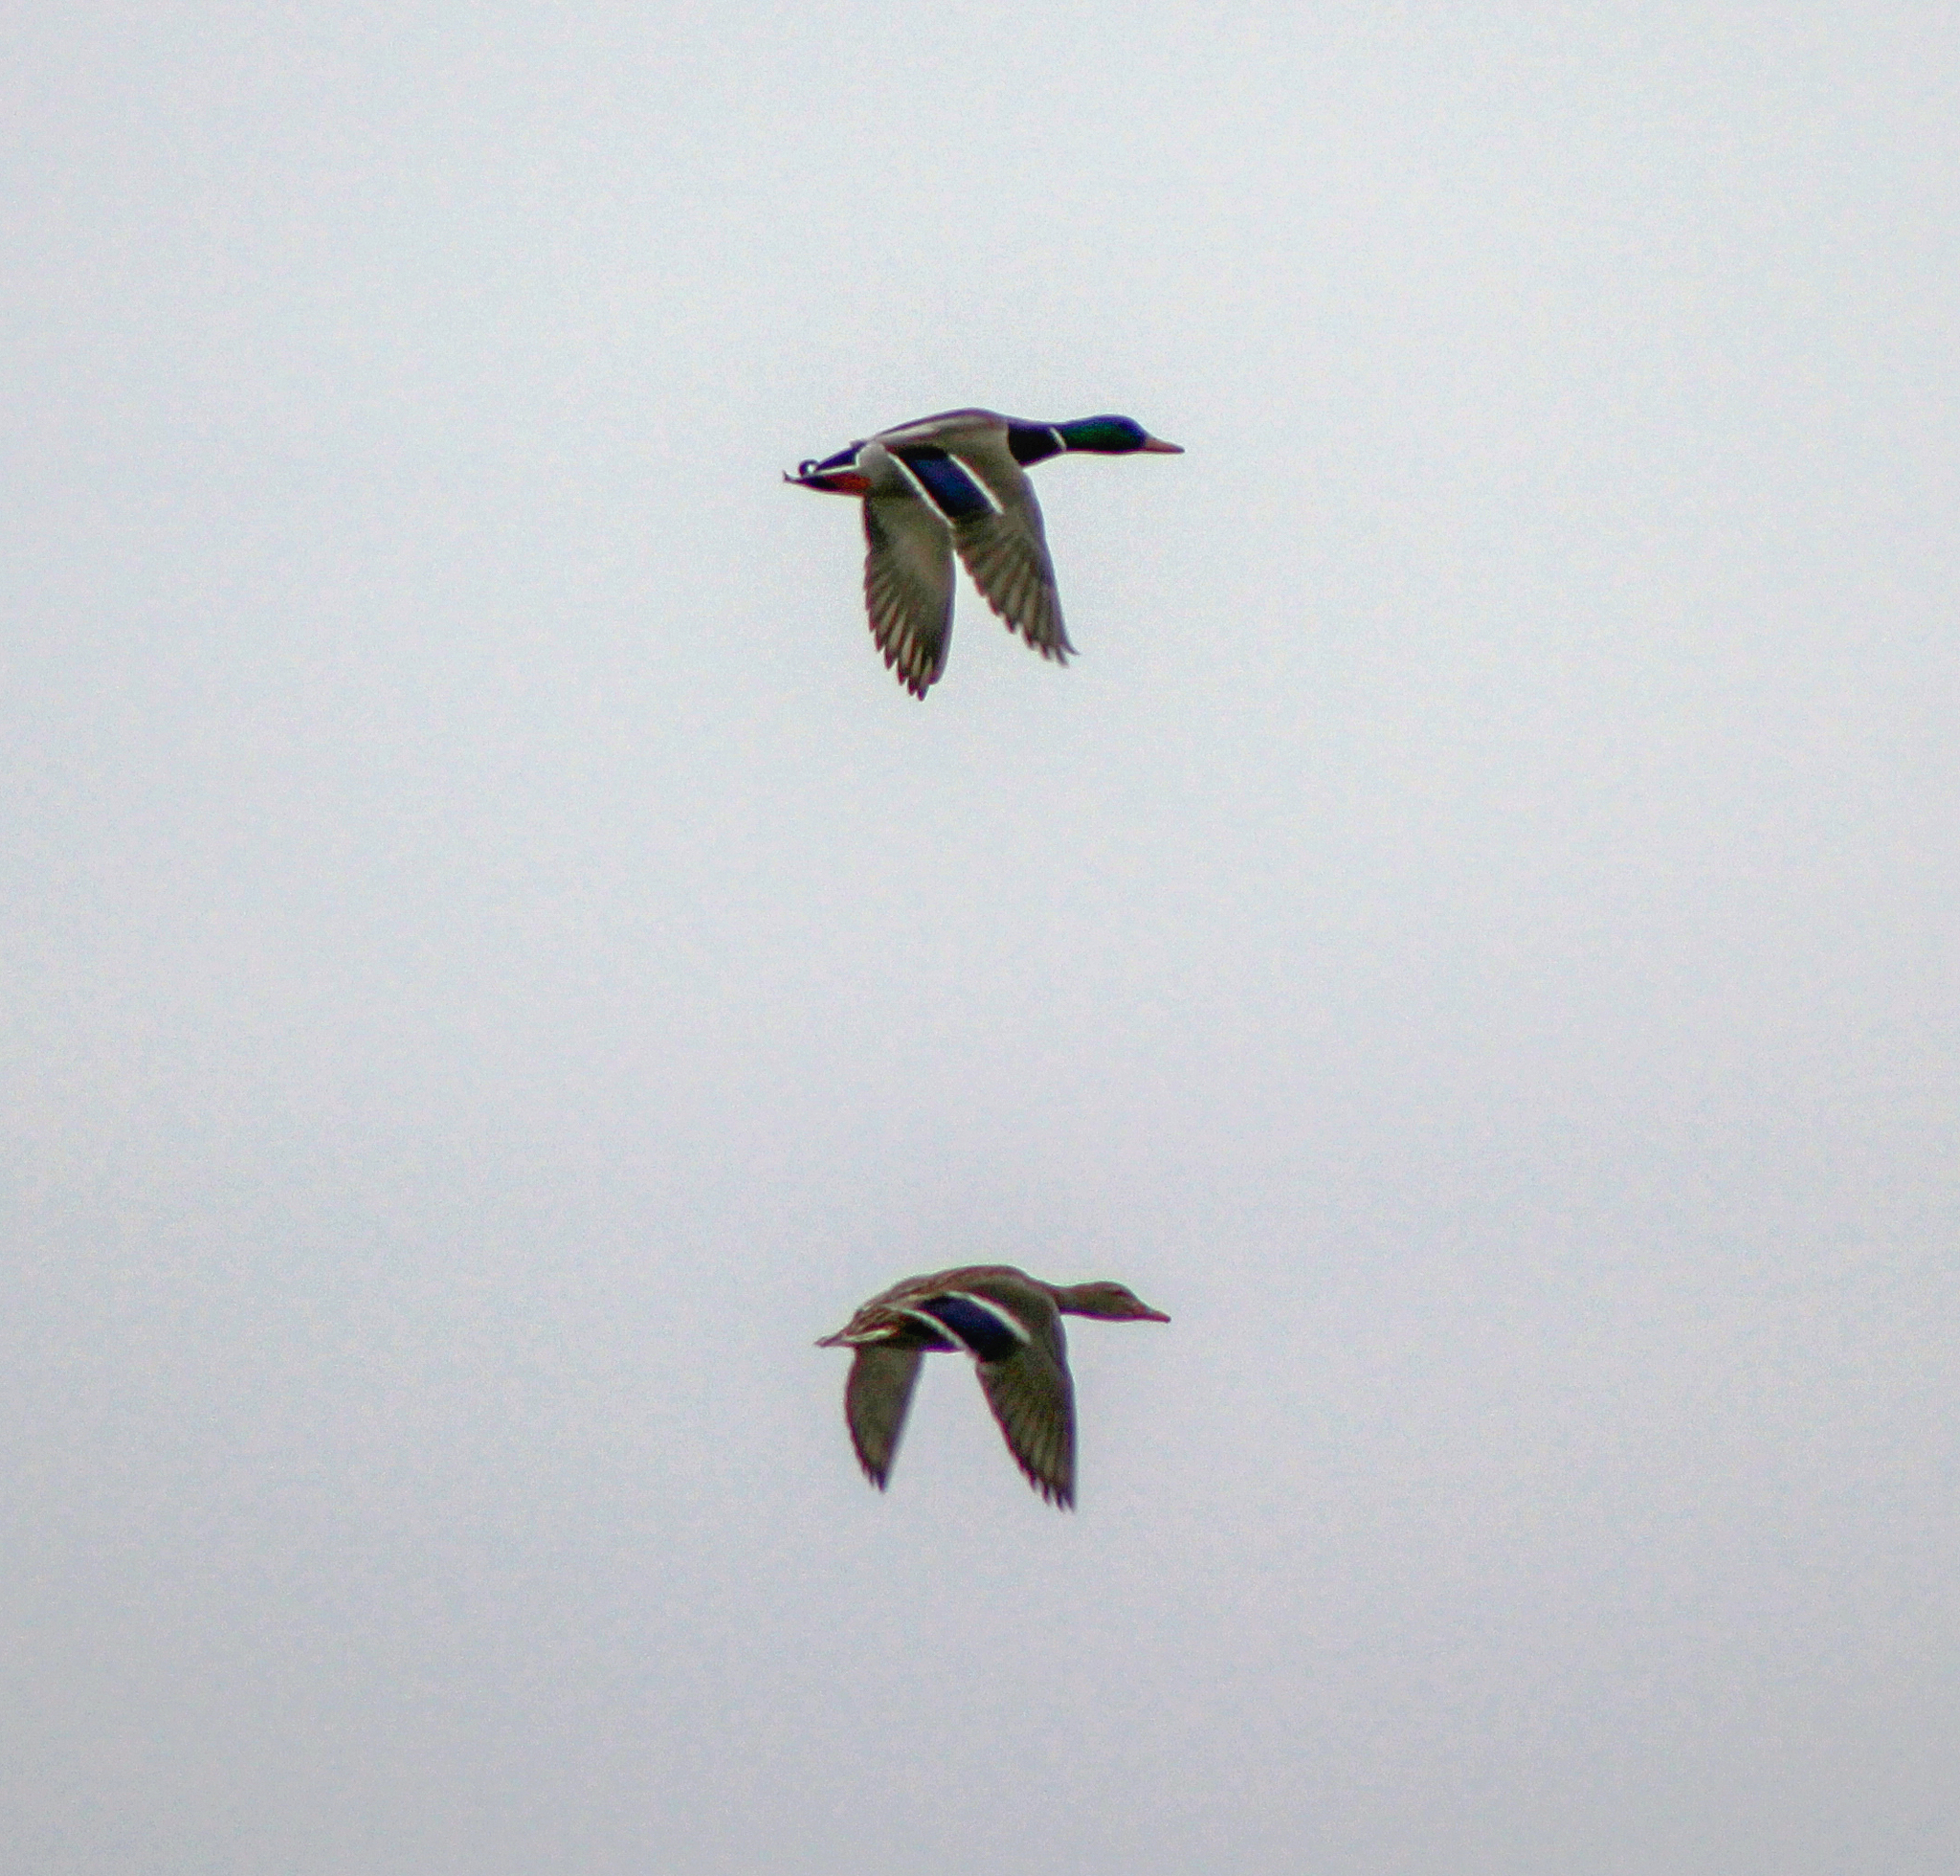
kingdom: Animalia
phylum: Chordata
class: Aves
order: Anseriformes
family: Anatidae
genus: Anas
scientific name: Anas platyrhynchos
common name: Mallard
